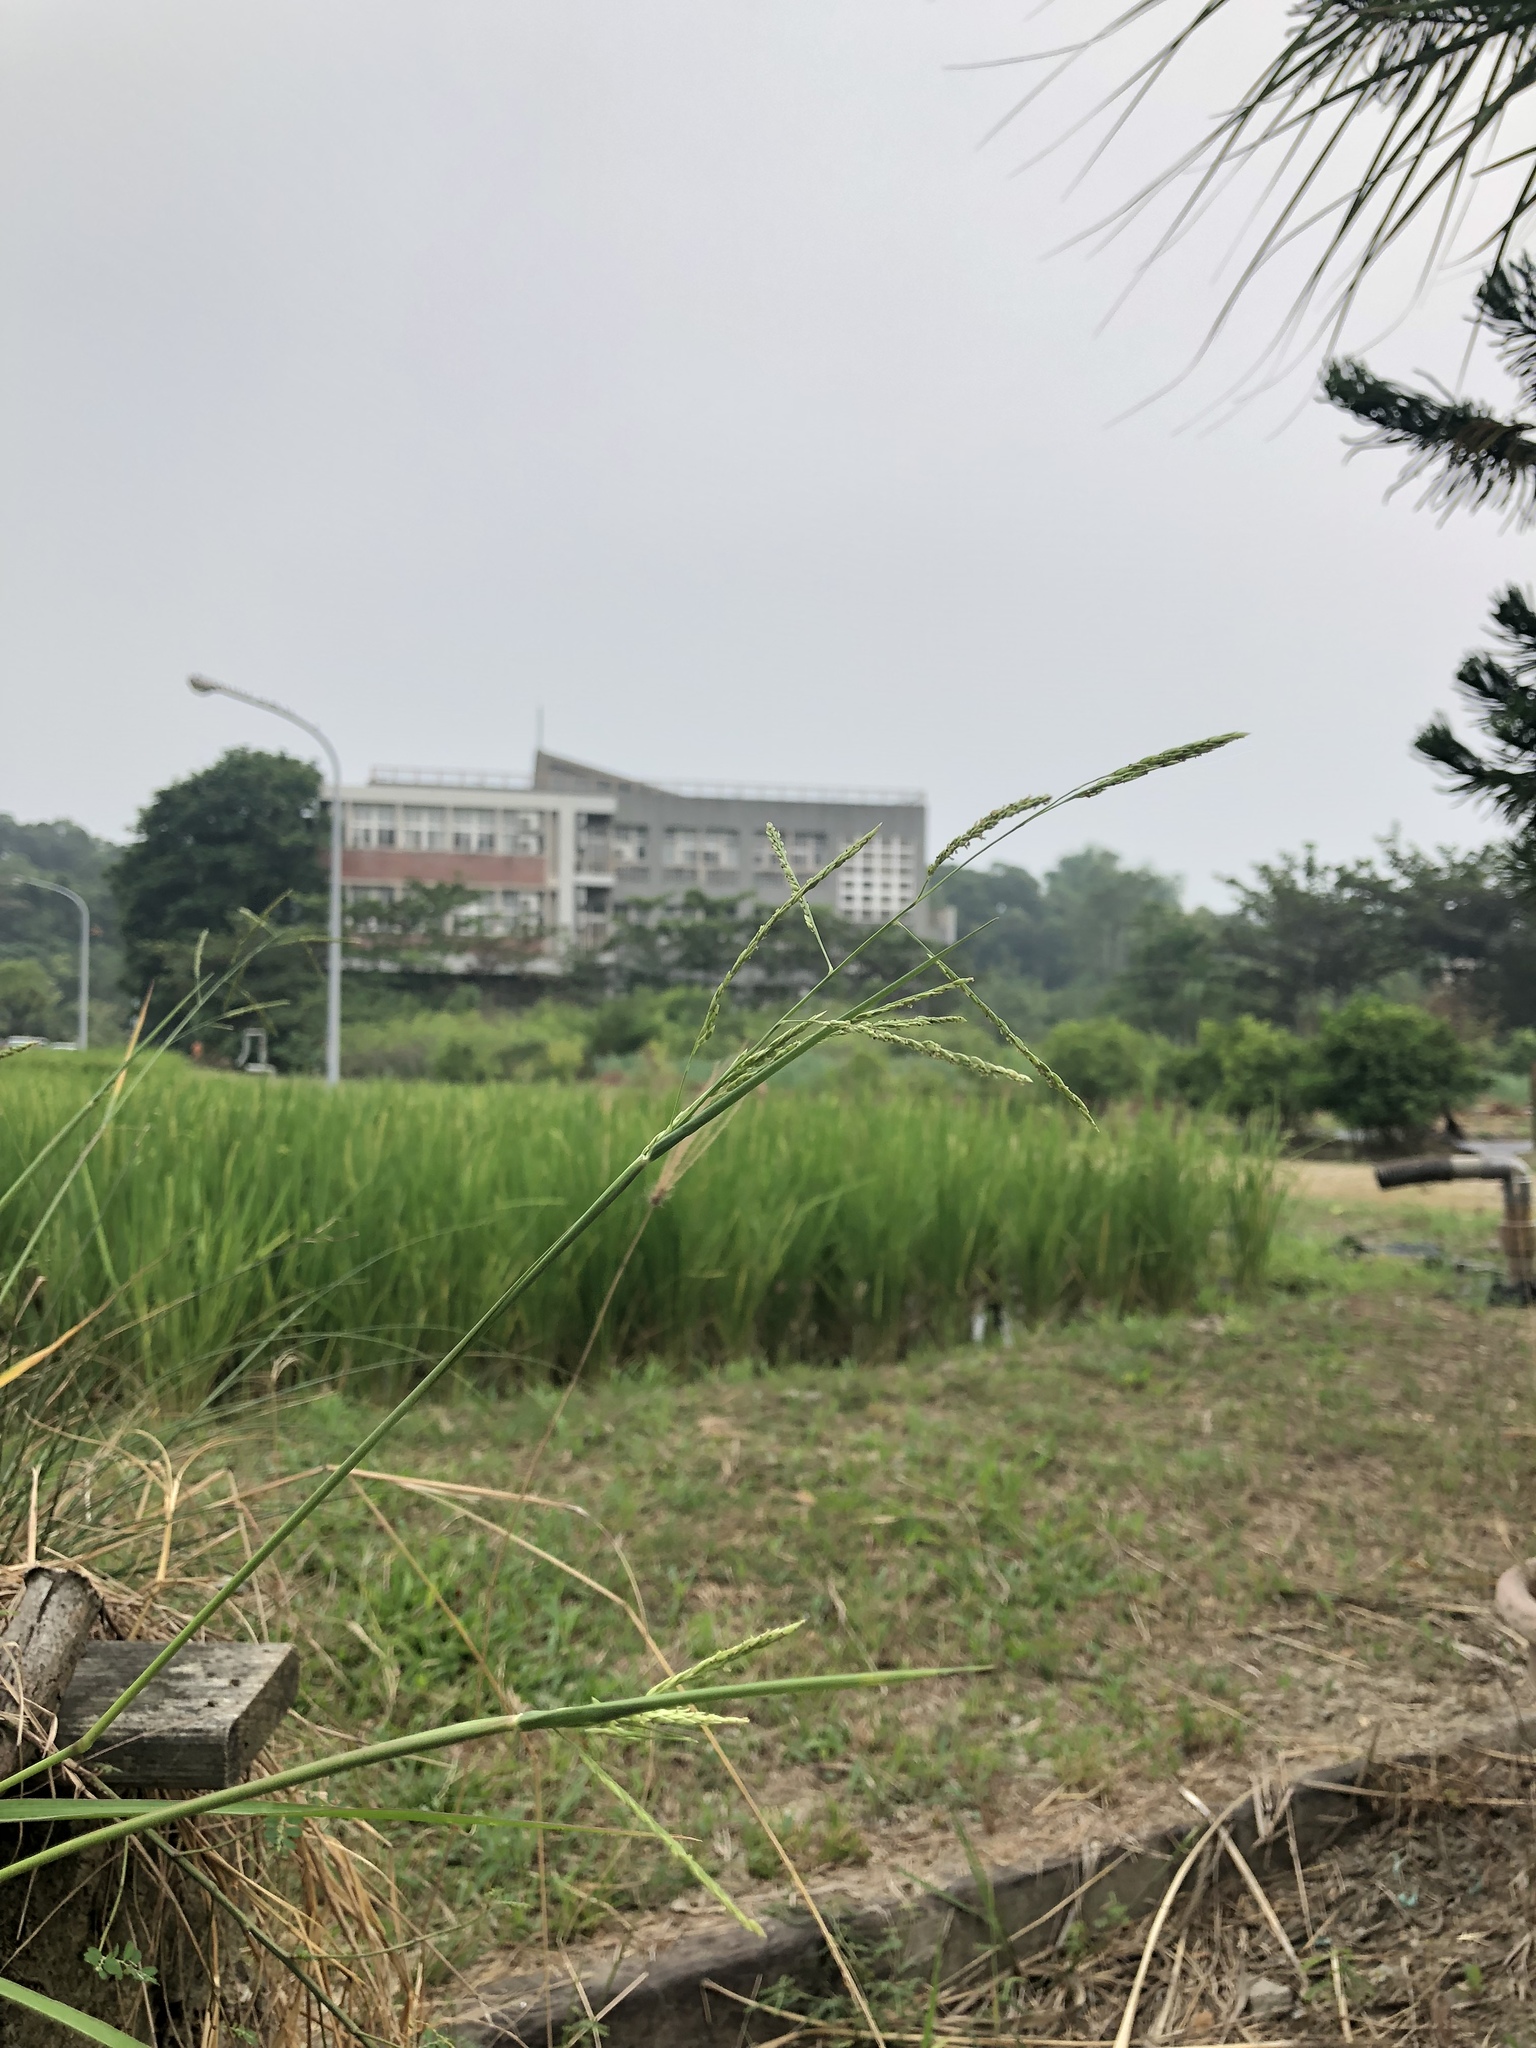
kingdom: Plantae
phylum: Tracheophyta
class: Liliopsida
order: Poales
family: Poaceae
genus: Eriochloa
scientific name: Eriochloa procera
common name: Spring grass
